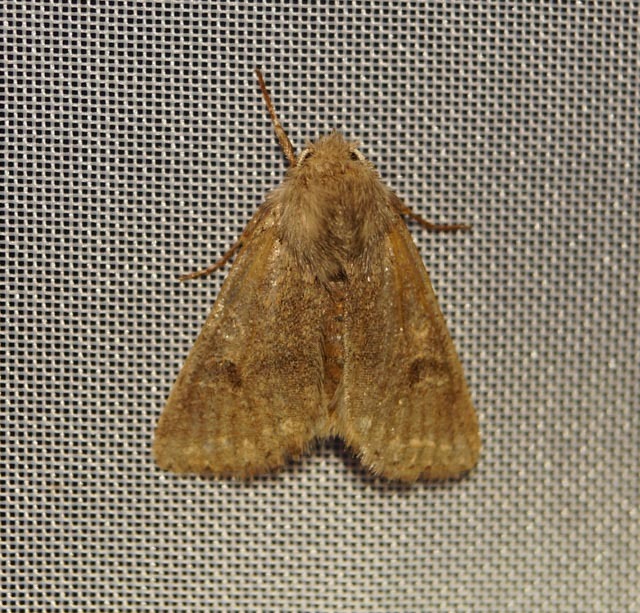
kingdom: Animalia
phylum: Arthropoda
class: Insecta
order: Lepidoptera
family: Noctuidae
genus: Orthosia
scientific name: Orthosia cruda
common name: Small quaker
